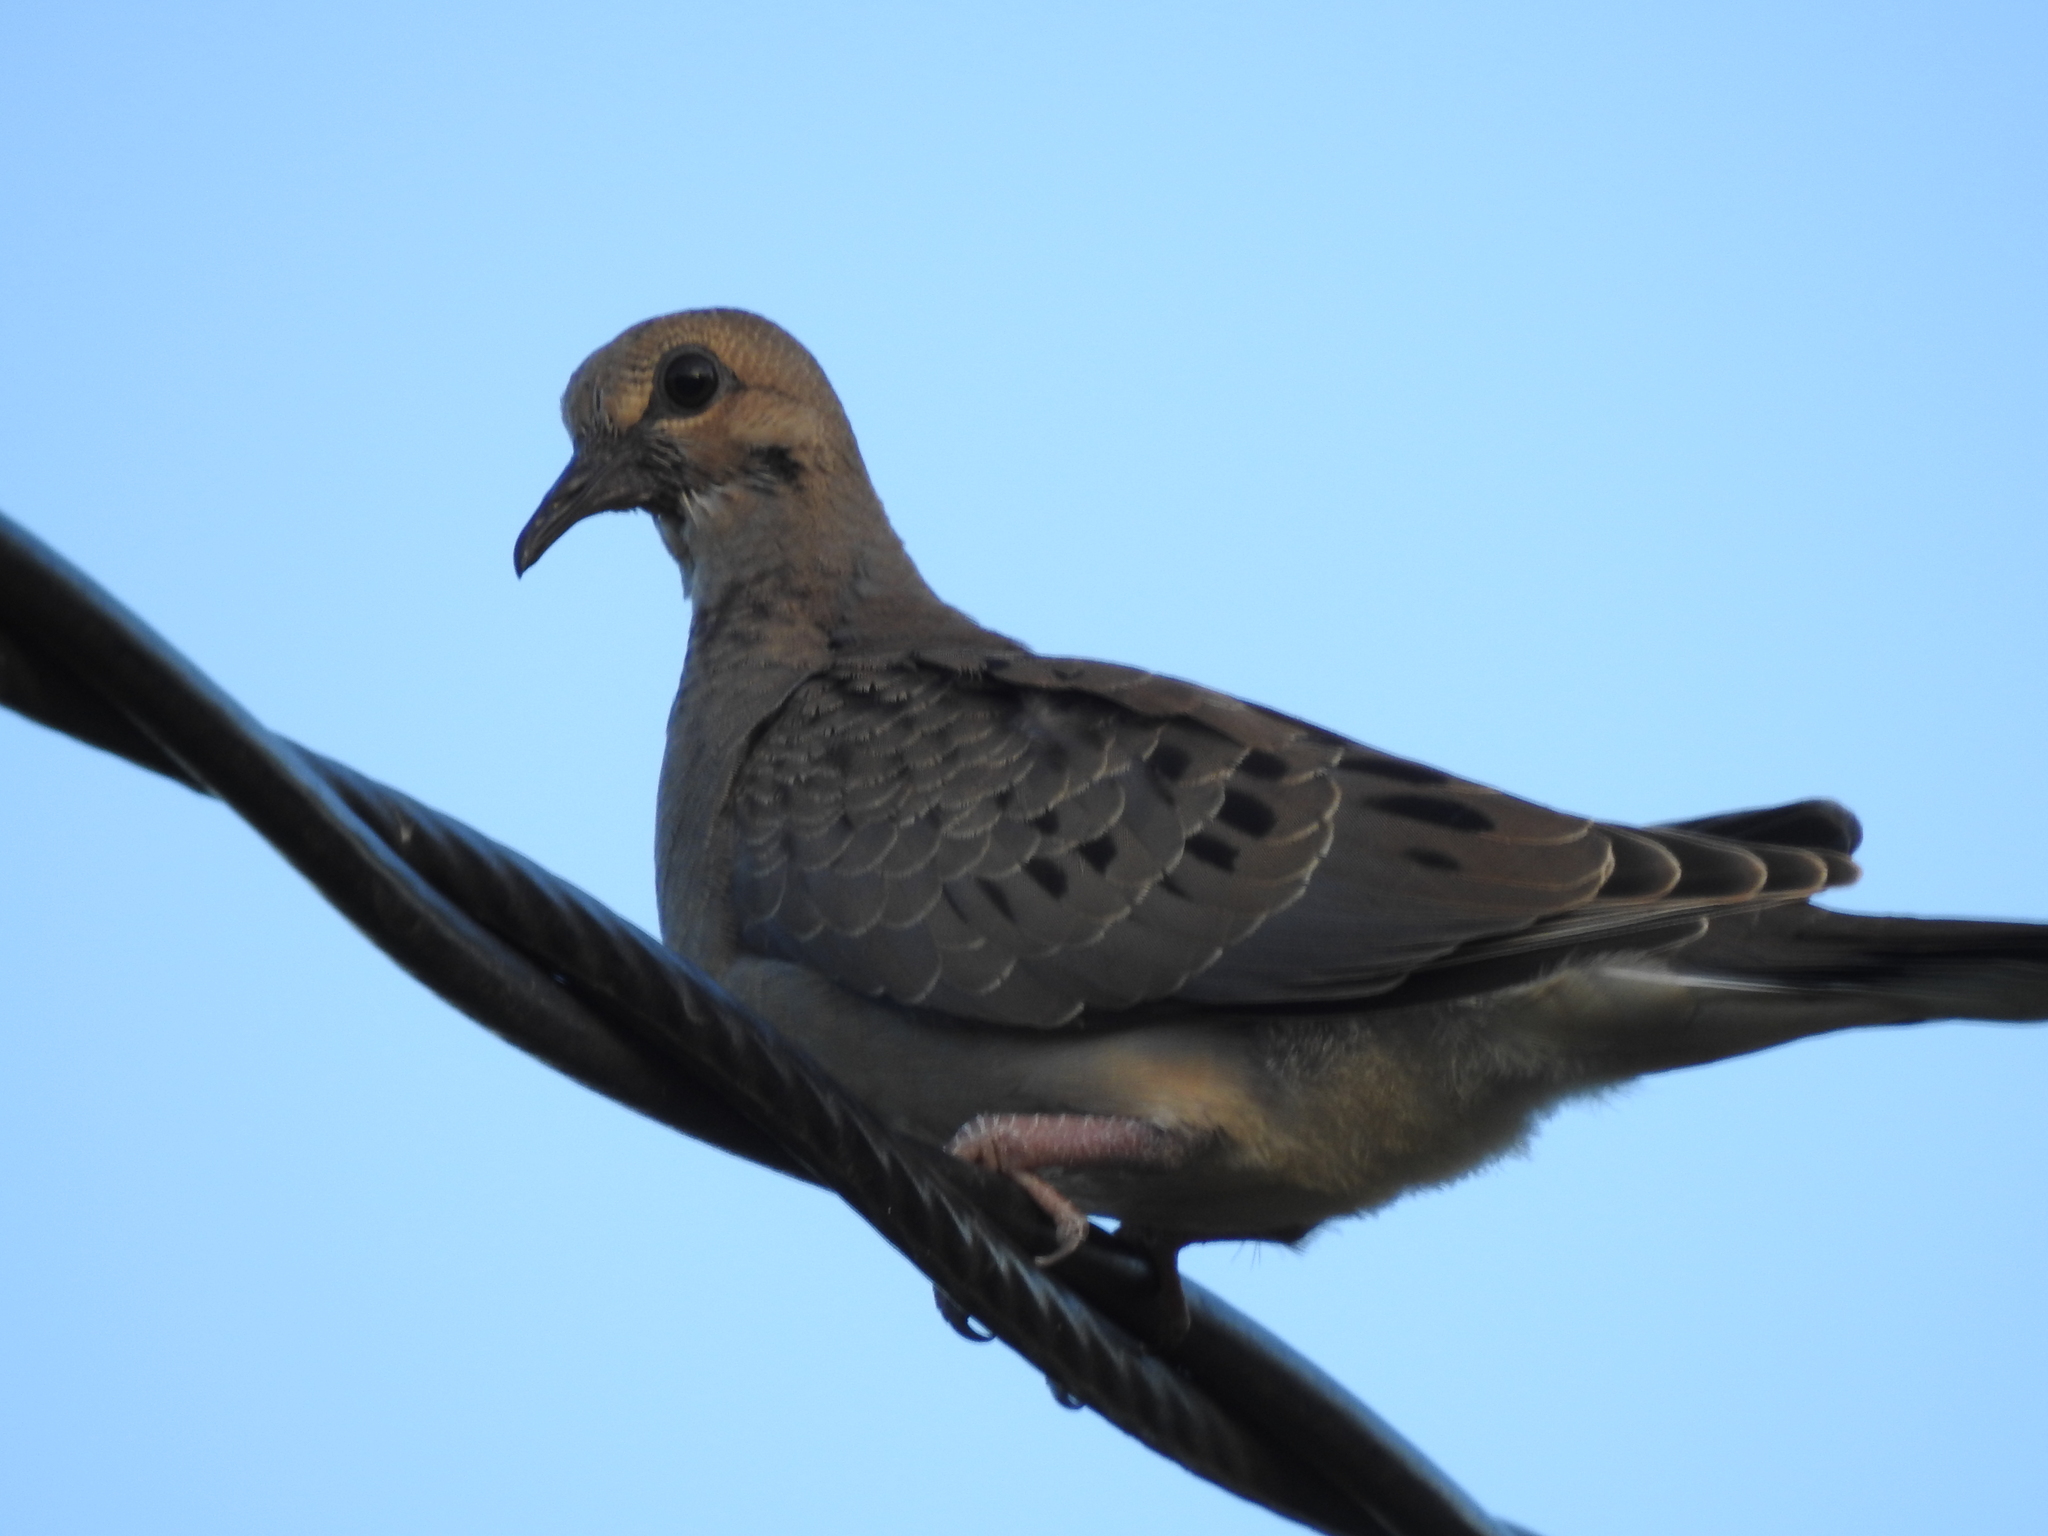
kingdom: Animalia
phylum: Chordata
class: Aves
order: Columbiformes
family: Columbidae
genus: Zenaida
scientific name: Zenaida macroura
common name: Mourning dove
